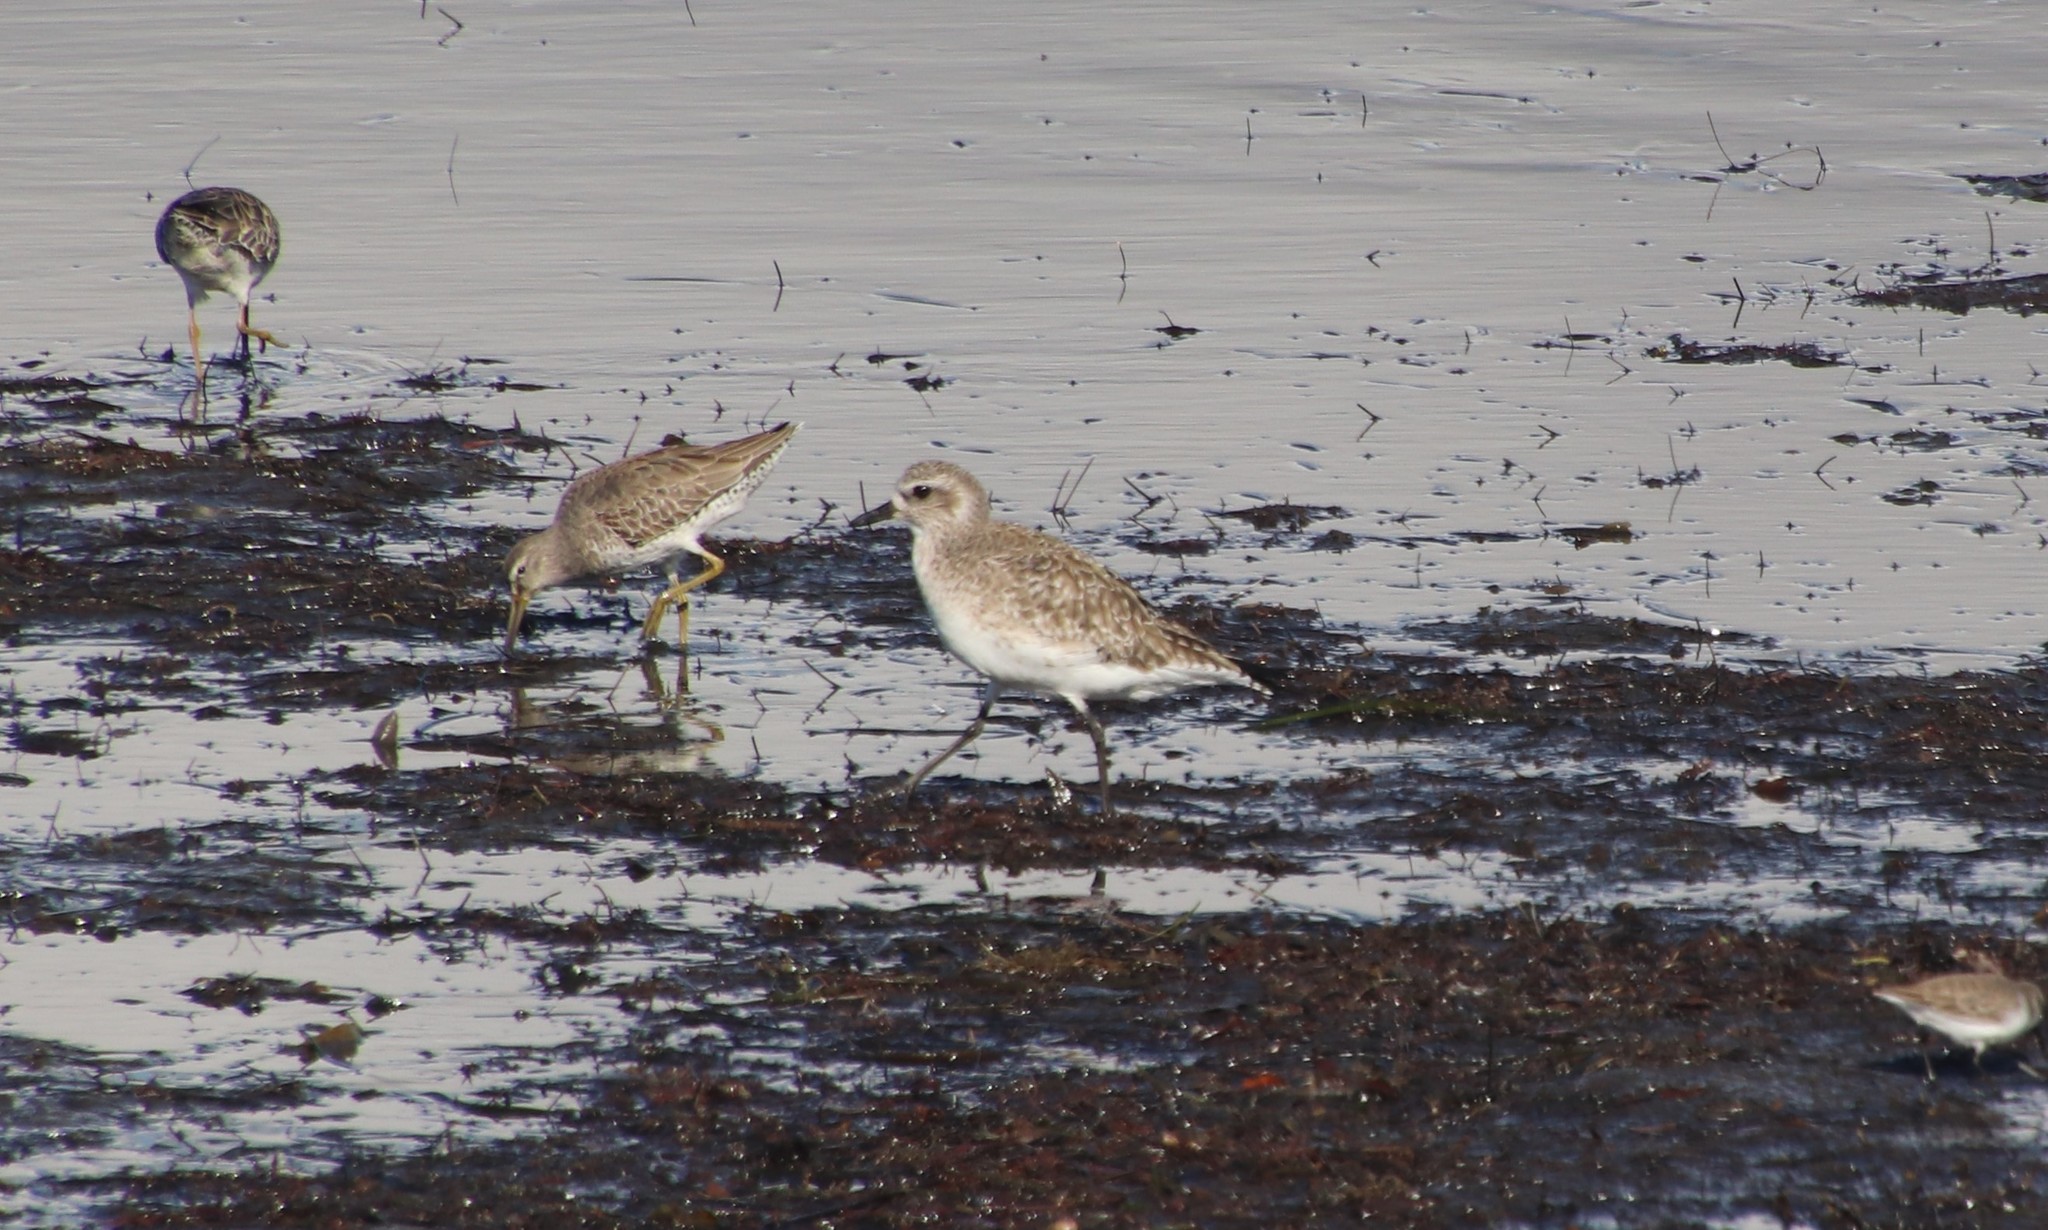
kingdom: Animalia
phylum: Chordata
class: Aves
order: Charadriiformes
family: Charadriidae
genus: Pluvialis
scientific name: Pluvialis squatarola
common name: Grey plover
